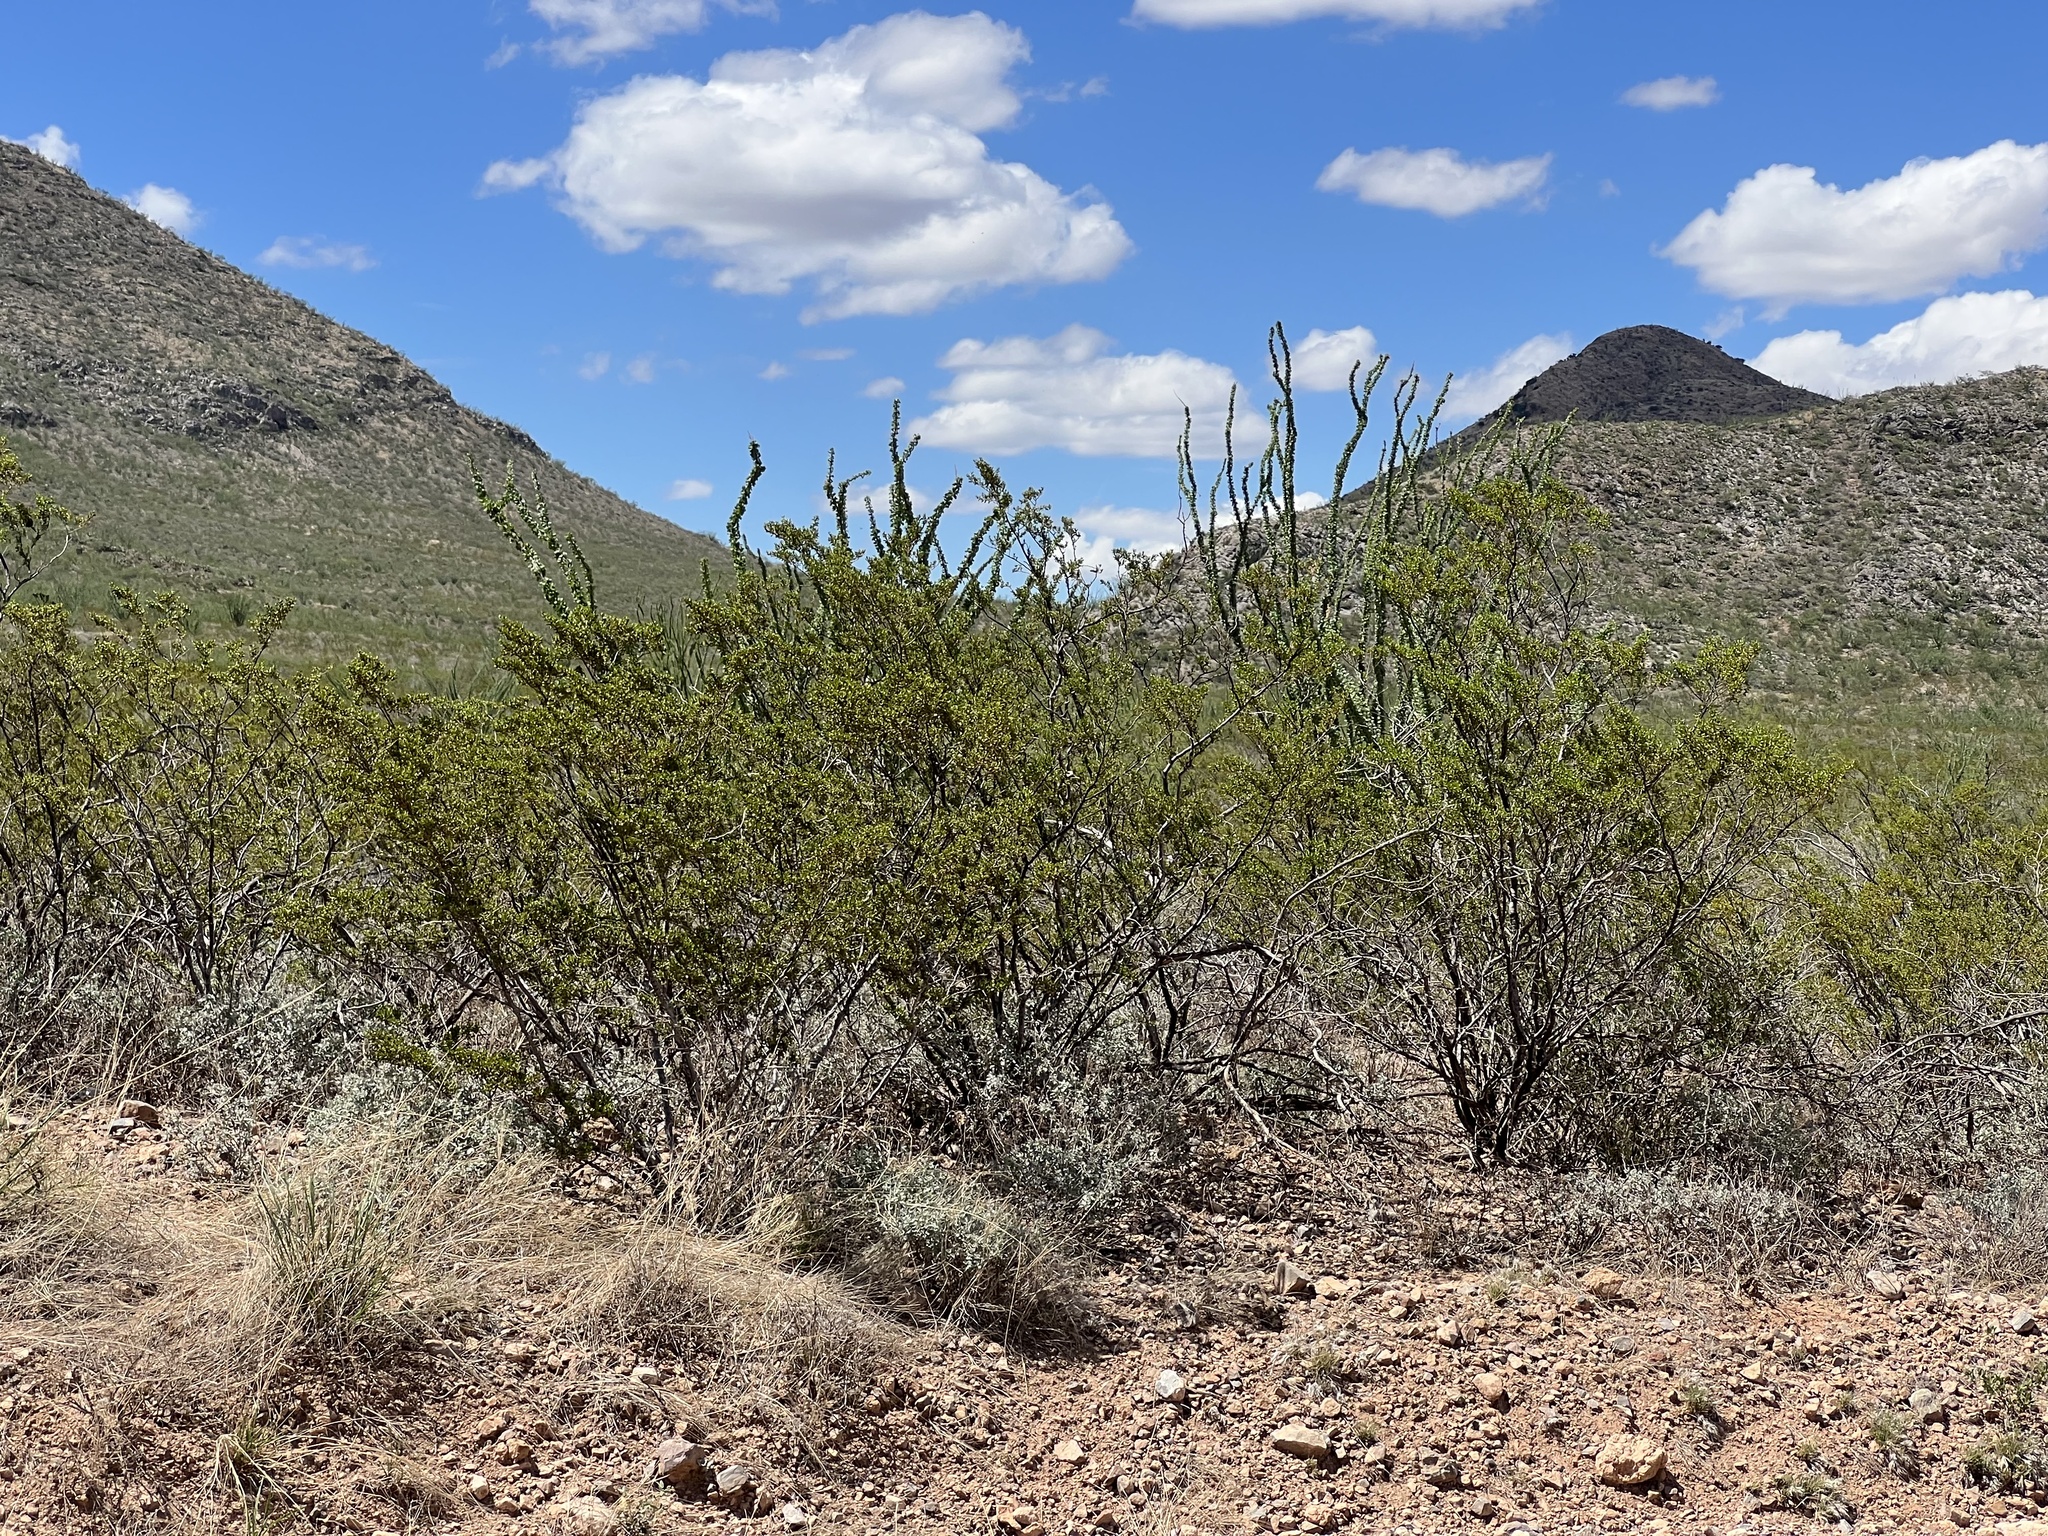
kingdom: Plantae
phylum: Tracheophyta
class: Magnoliopsida
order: Zygophyllales
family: Zygophyllaceae
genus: Larrea
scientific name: Larrea tridentata
